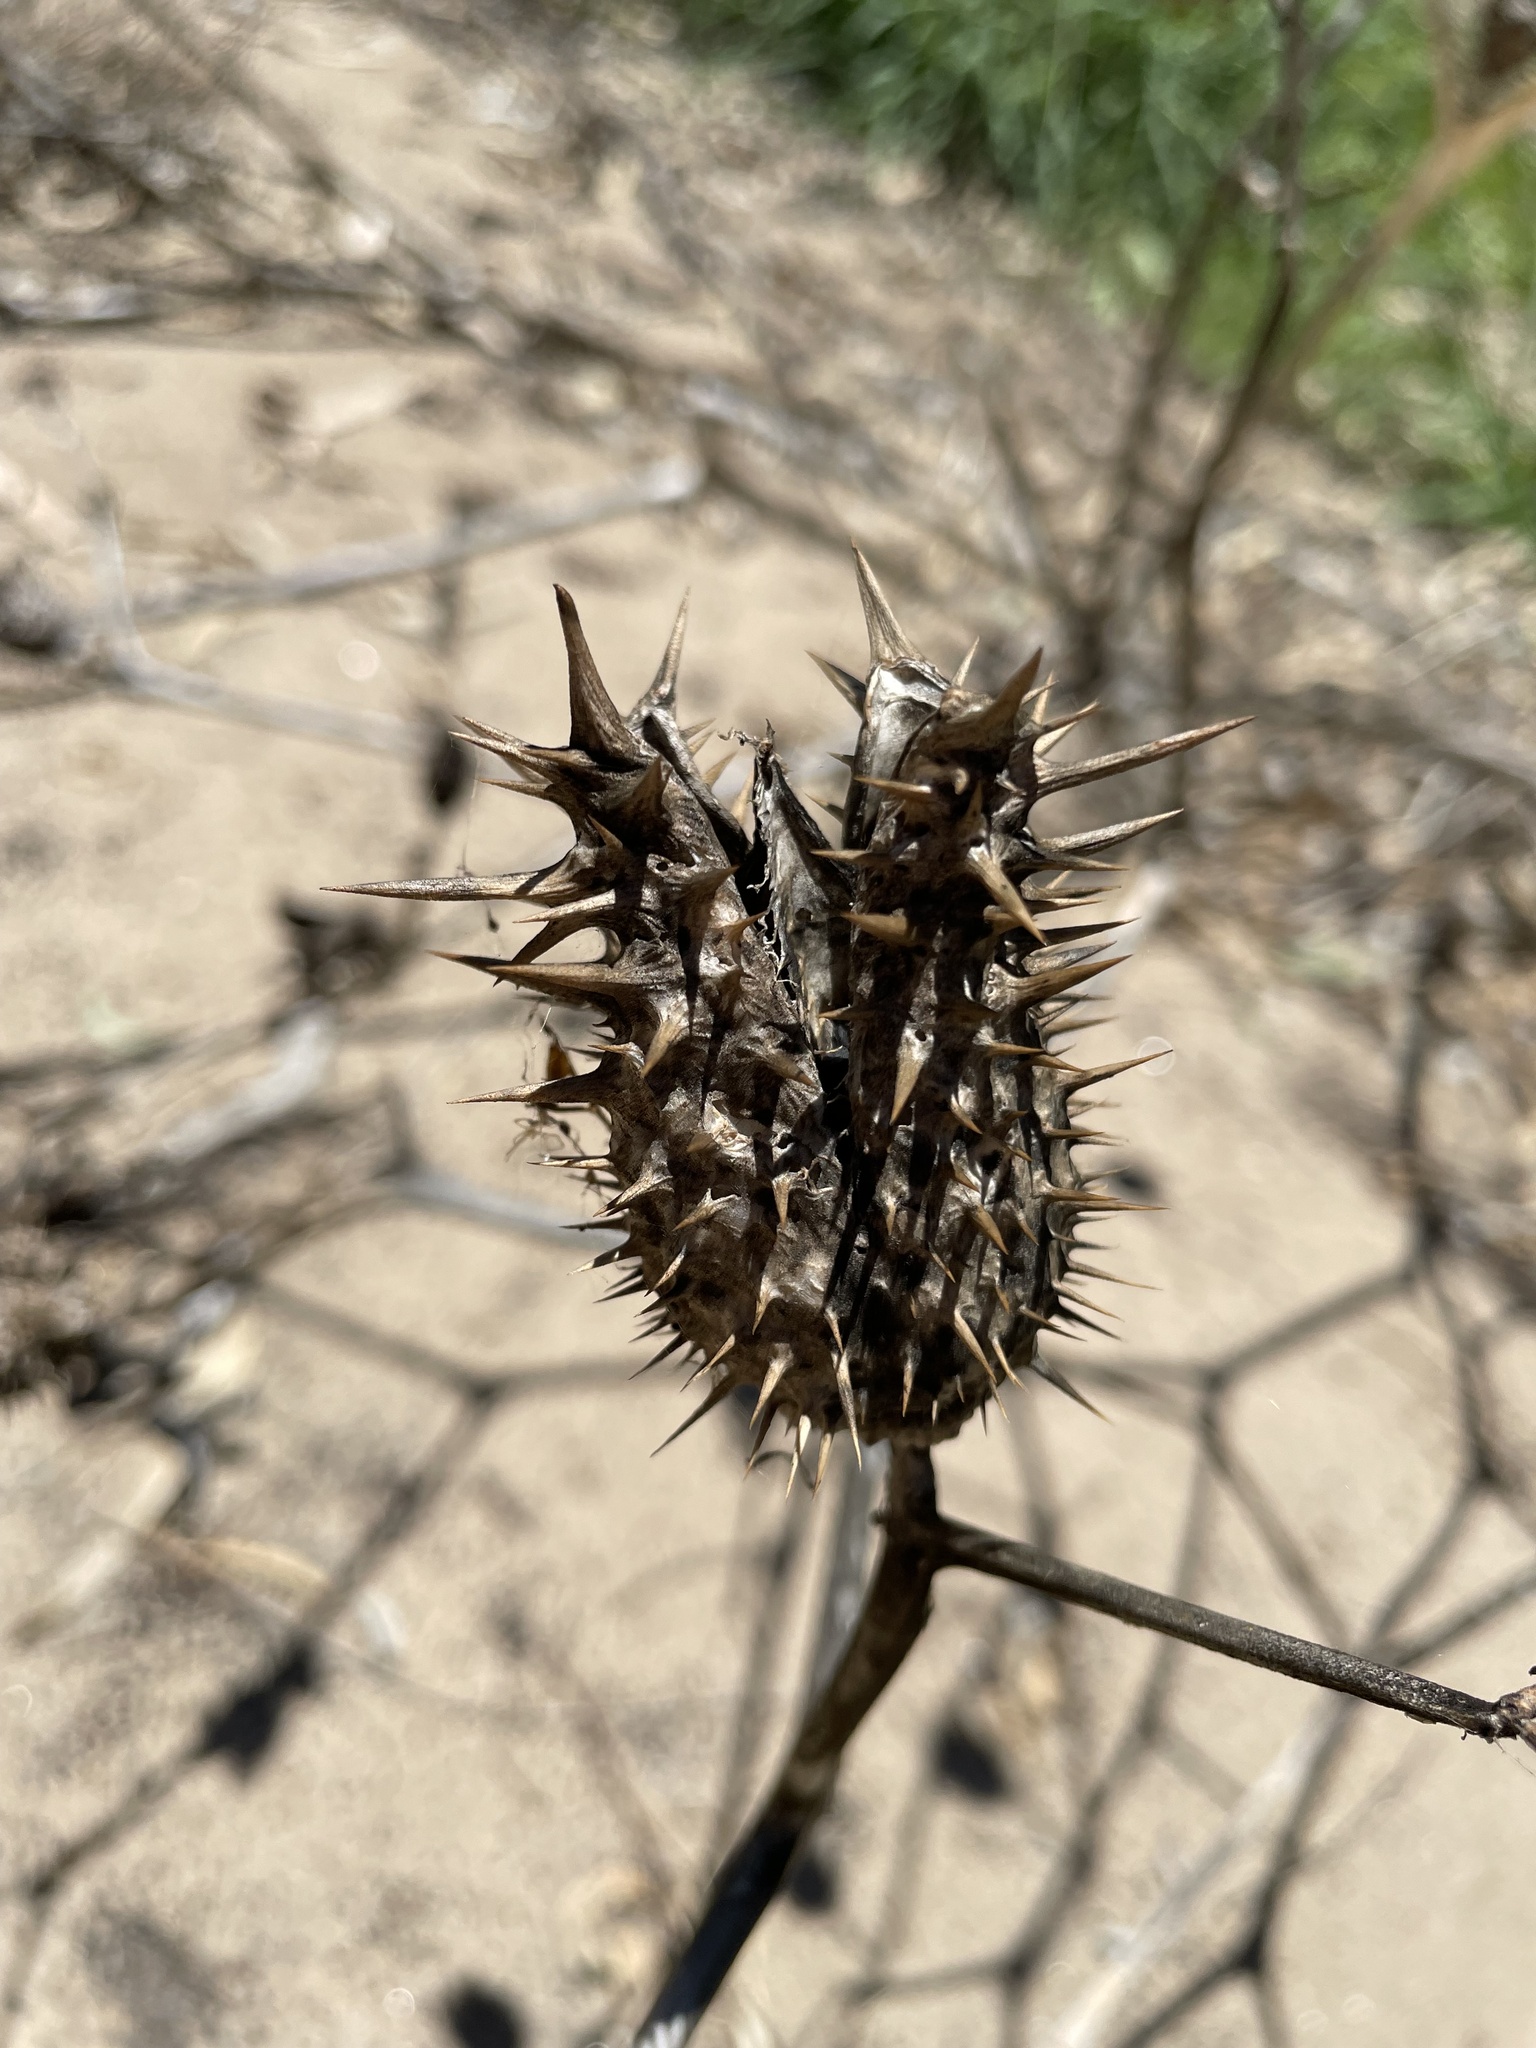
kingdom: Plantae
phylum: Tracheophyta
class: Magnoliopsida
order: Solanales
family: Solanaceae
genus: Datura
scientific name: Datura stramonium
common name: Thorn-apple
